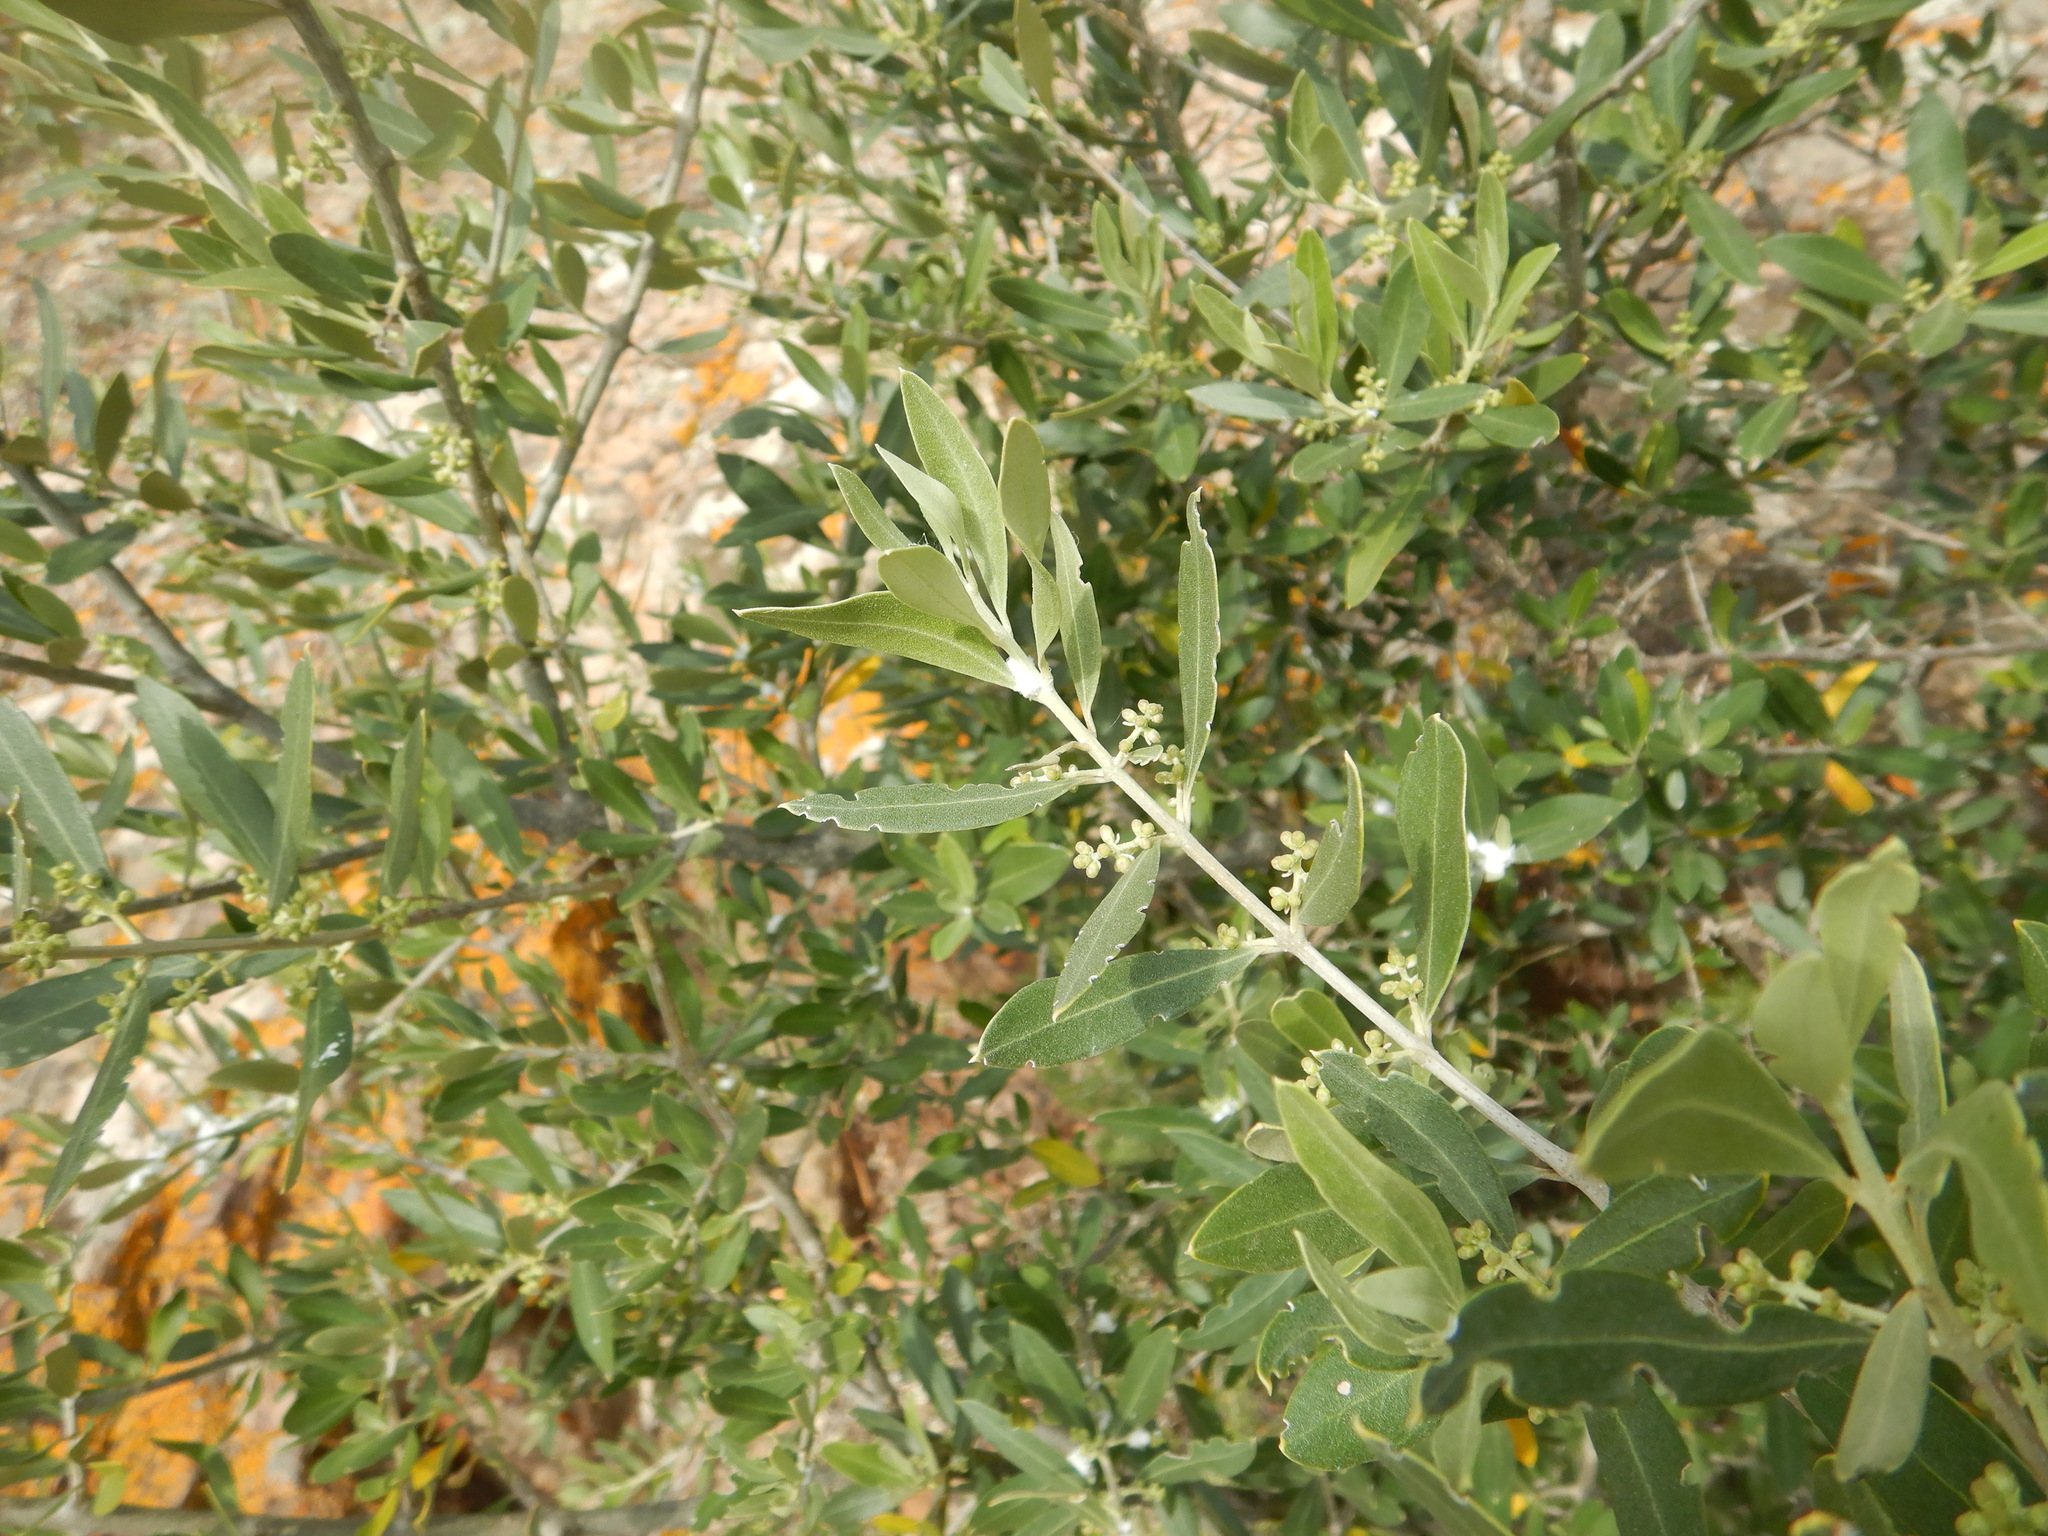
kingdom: Plantae
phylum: Tracheophyta
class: Magnoliopsida
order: Lamiales
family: Oleaceae
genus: Olea
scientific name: Olea europaea
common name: Olive
